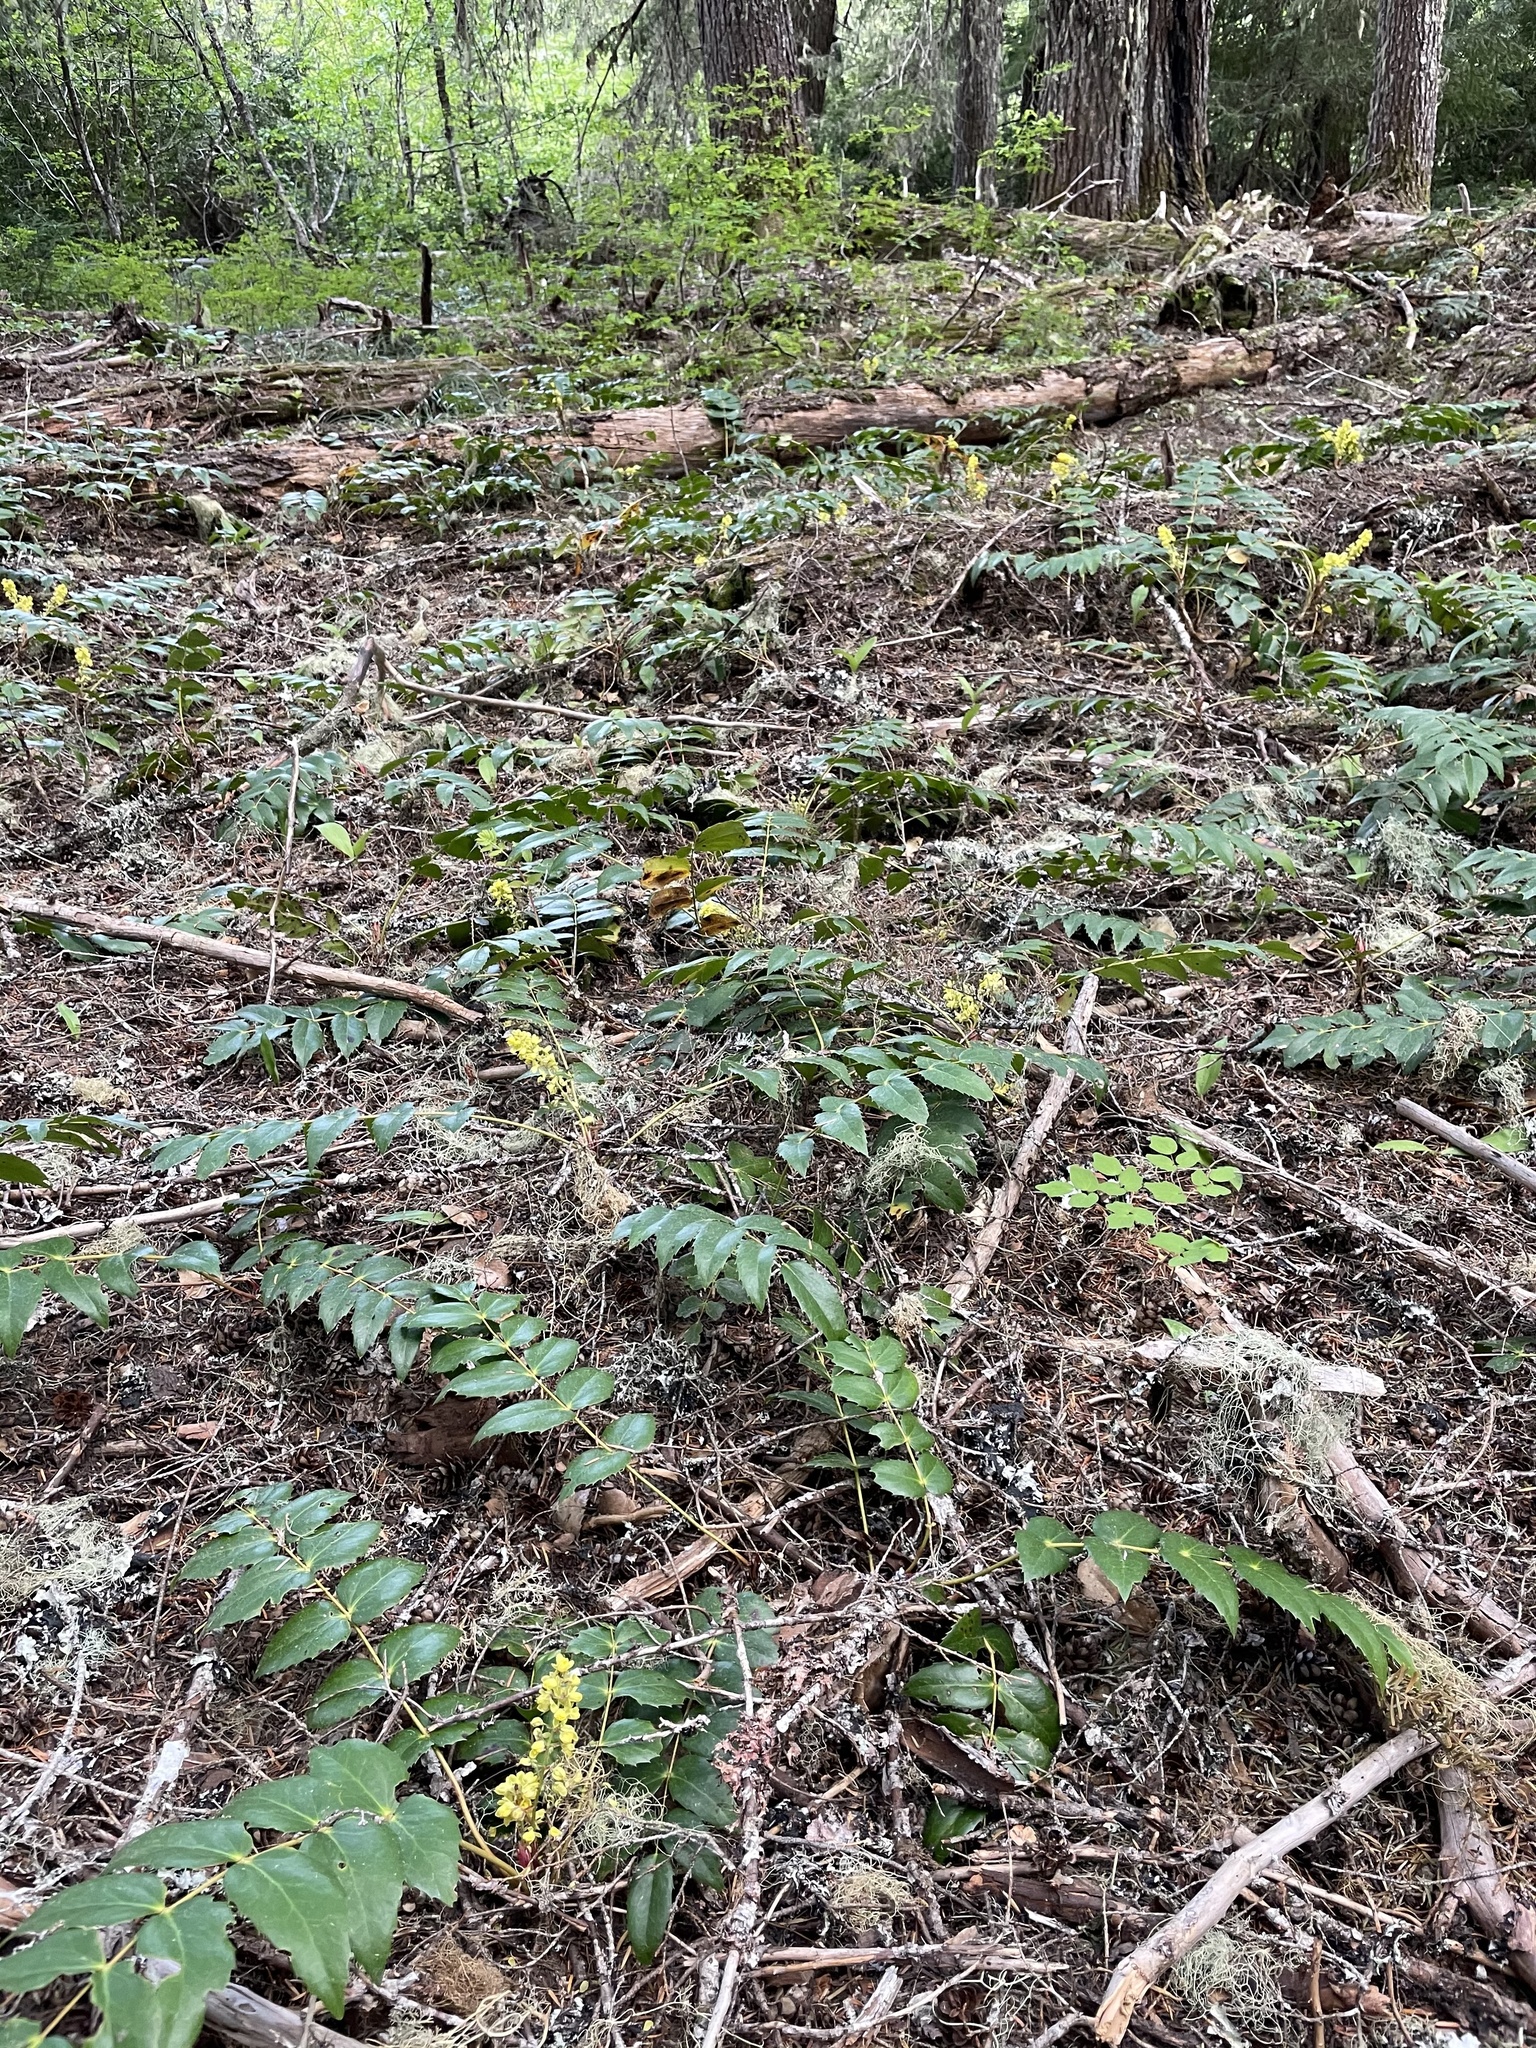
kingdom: Plantae
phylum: Tracheophyta
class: Magnoliopsida
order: Ranunculales
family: Berberidaceae
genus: Mahonia
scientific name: Mahonia nervosa
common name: Cascade oregon-grape
